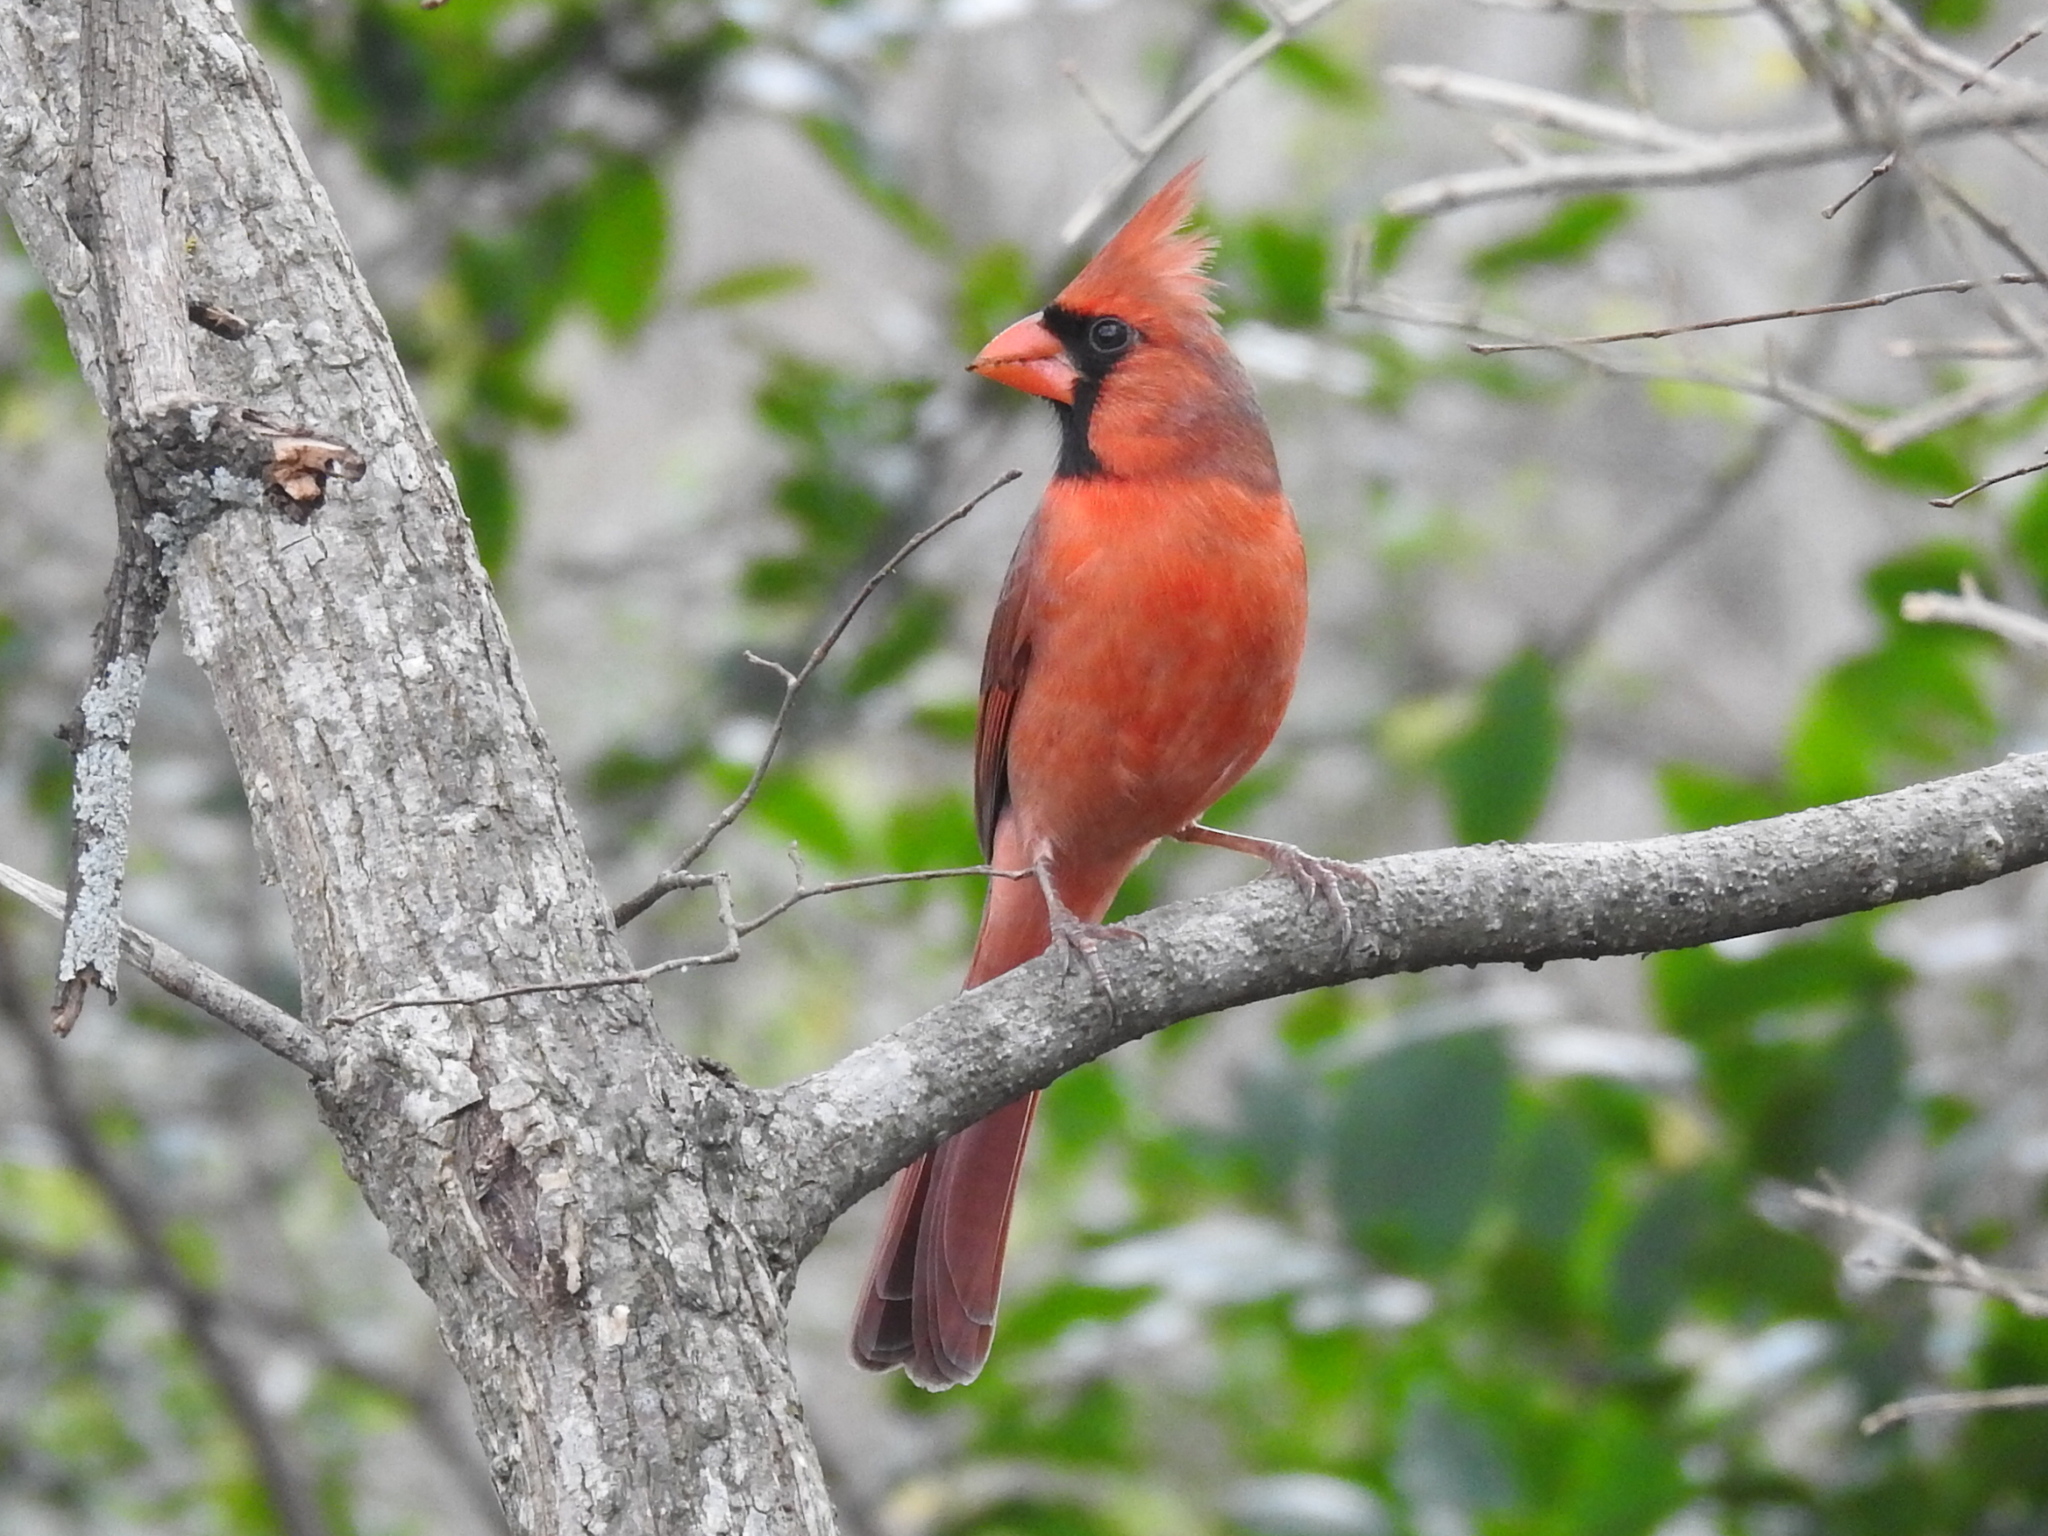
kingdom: Animalia
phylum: Chordata
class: Aves
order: Passeriformes
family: Cardinalidae
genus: Cardinalis
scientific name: Cardinalis cardinalis
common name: Northern cardinal
